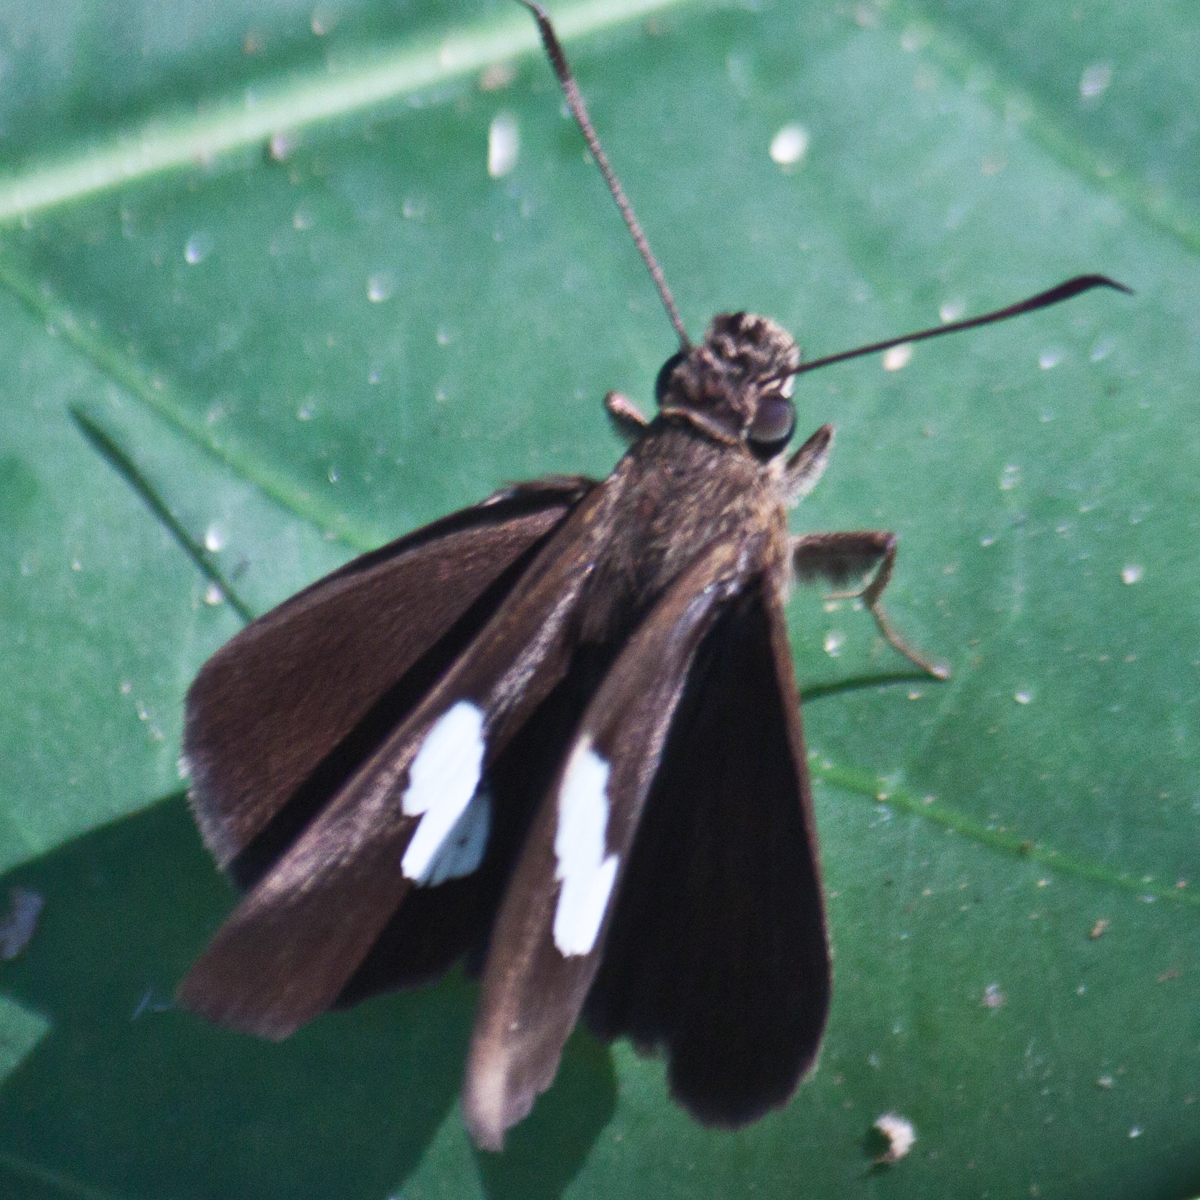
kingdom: Animalia
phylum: Arthropoda
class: Insecta
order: Lepidoptera
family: Hesperiidae
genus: Notocrypta
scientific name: Notocrypta paralysos
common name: Common banded demon
